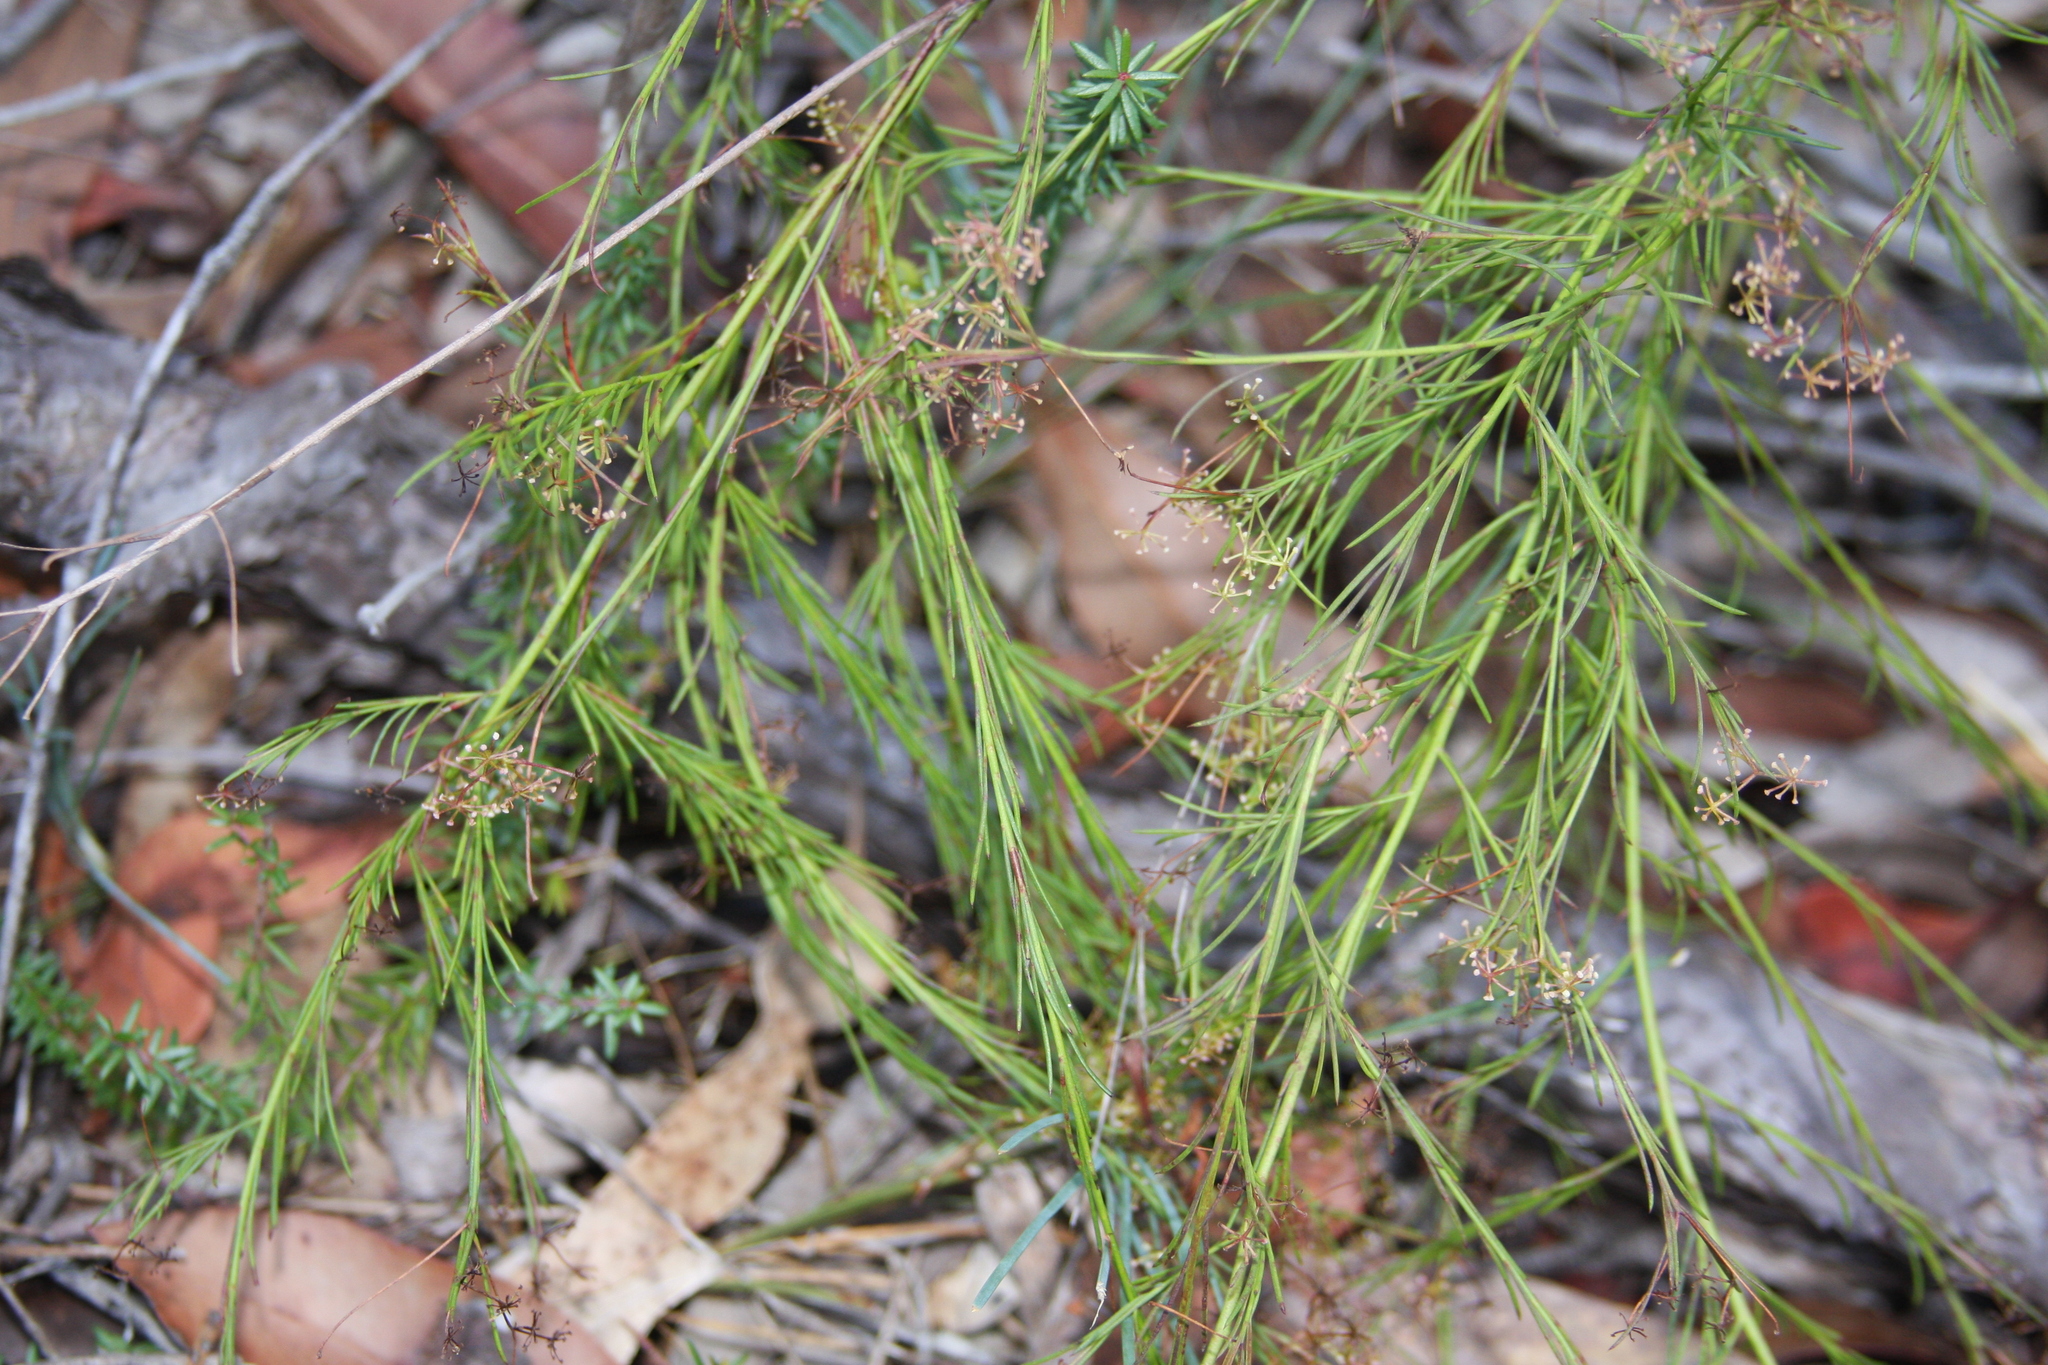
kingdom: Plantae
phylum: Tracheophyta
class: Magnoliopsida
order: Apiales
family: Apiaceae
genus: Platysace
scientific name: Platysace linearifolia
